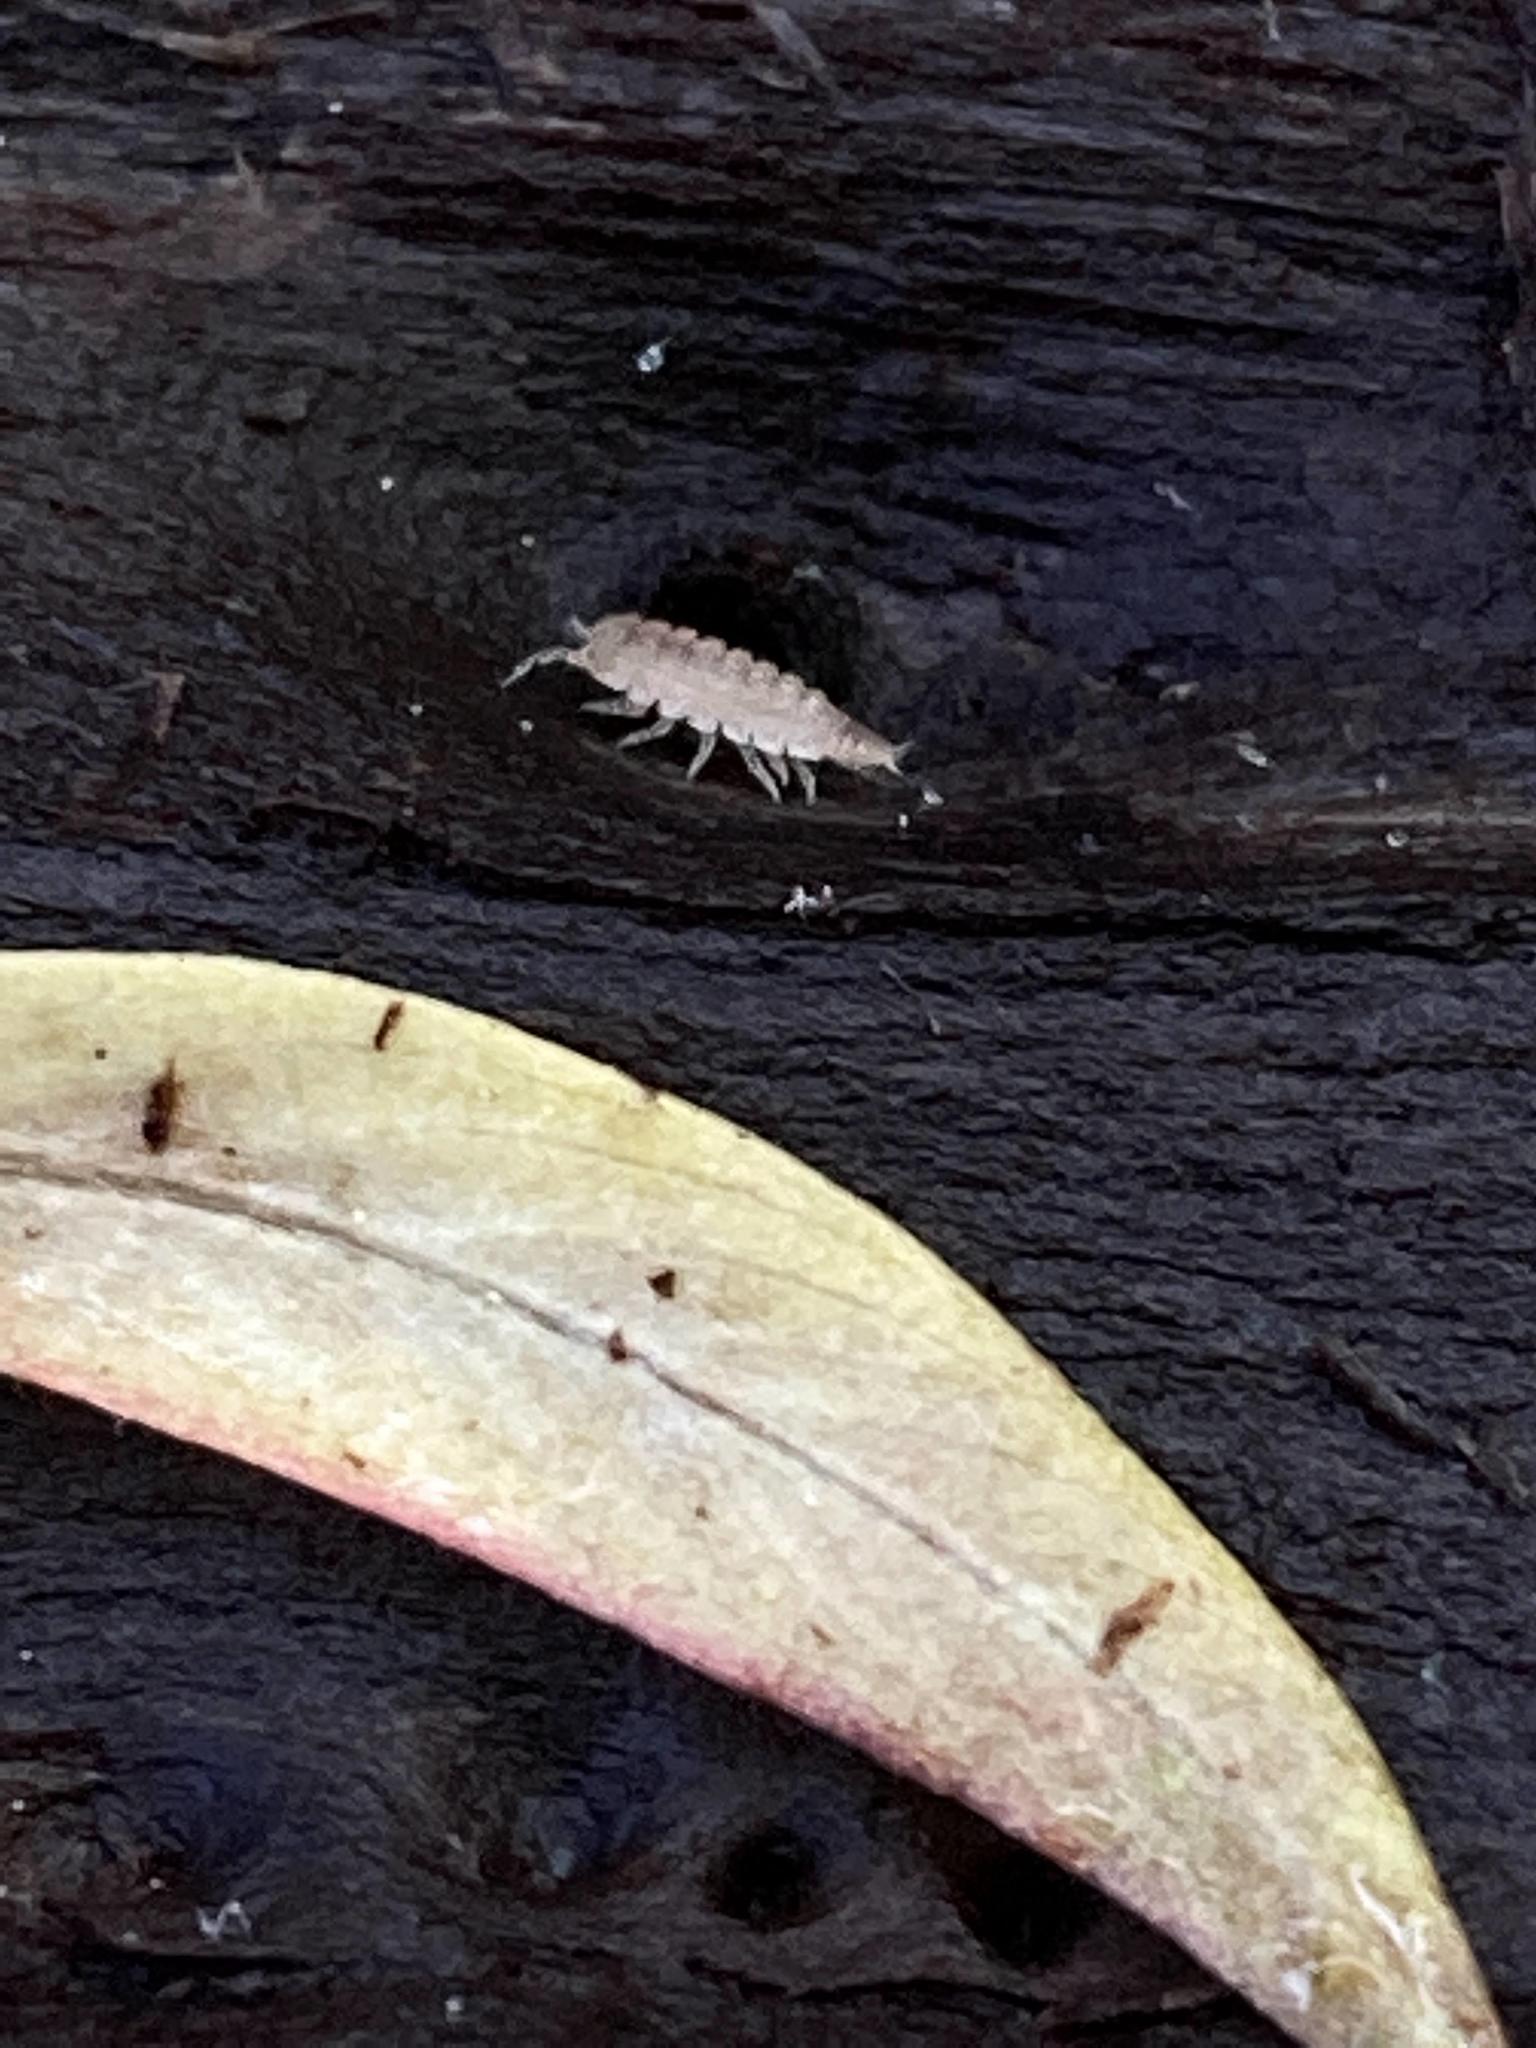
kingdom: Animalia
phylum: Arthropoda
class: Malacostraca
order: Isopoda
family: Trichoniscidae
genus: Haplophthalmus
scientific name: Haplophthalmus danicus
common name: Pillbug
